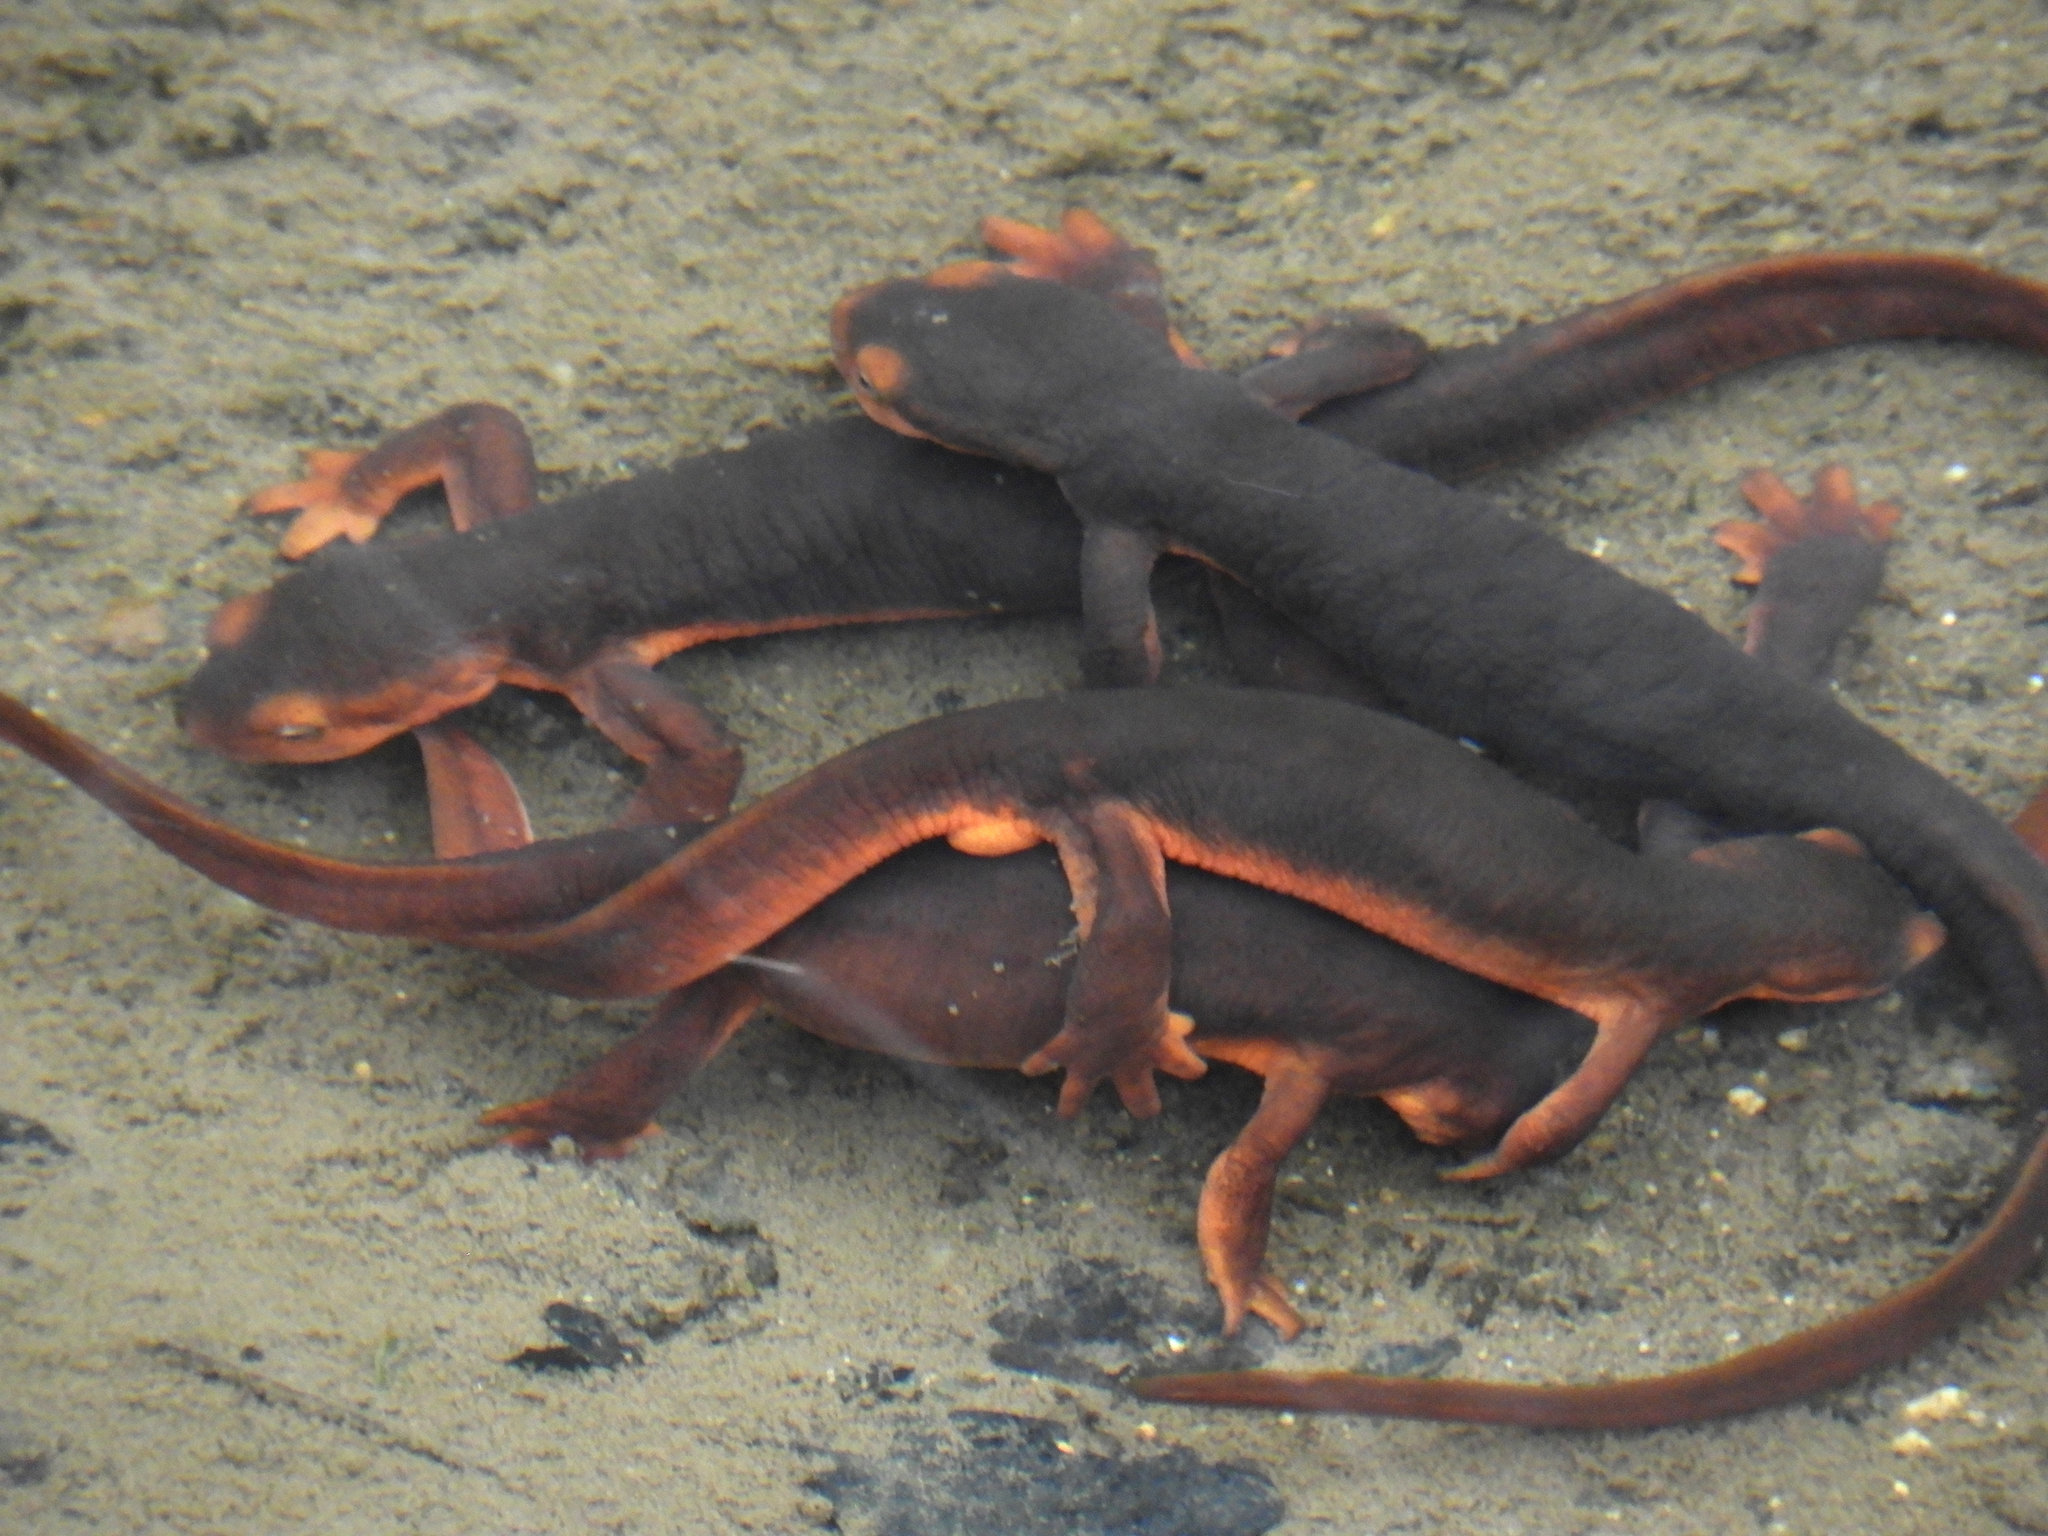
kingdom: Animalia
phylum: Chordata
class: Amphibia
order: Caudata
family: Salamandridae
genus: Taricha
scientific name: Taricha sierrae
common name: Sierra newt
